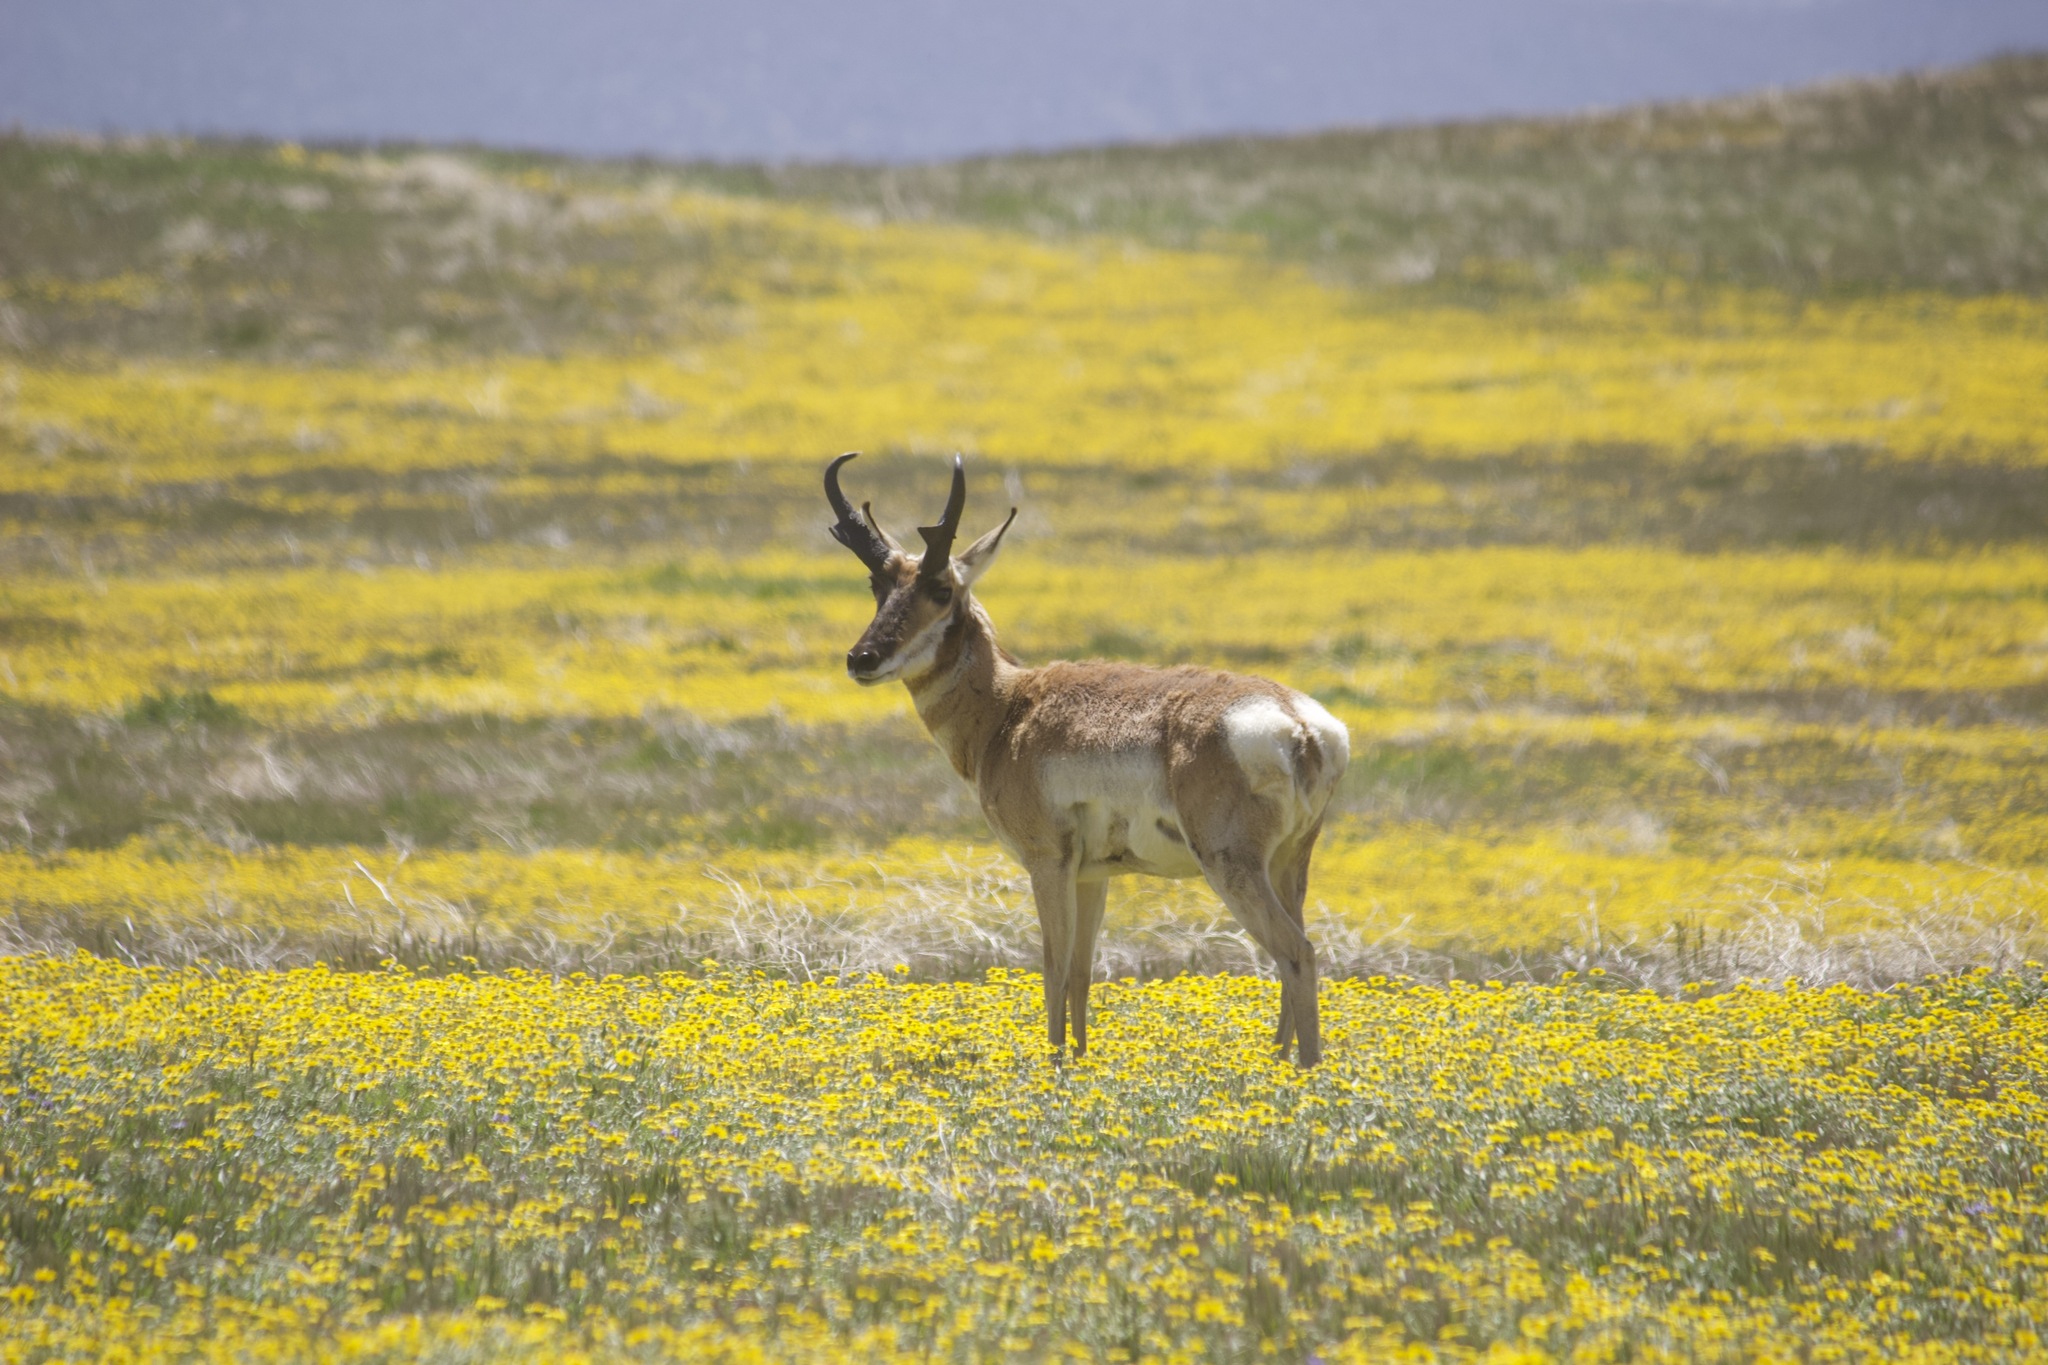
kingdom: Animalia
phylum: Chordata
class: Mammalia
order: Artiodactyla
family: Antilocapridae
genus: Antilocapra
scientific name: Antilocapra americana
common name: Pronghorn
